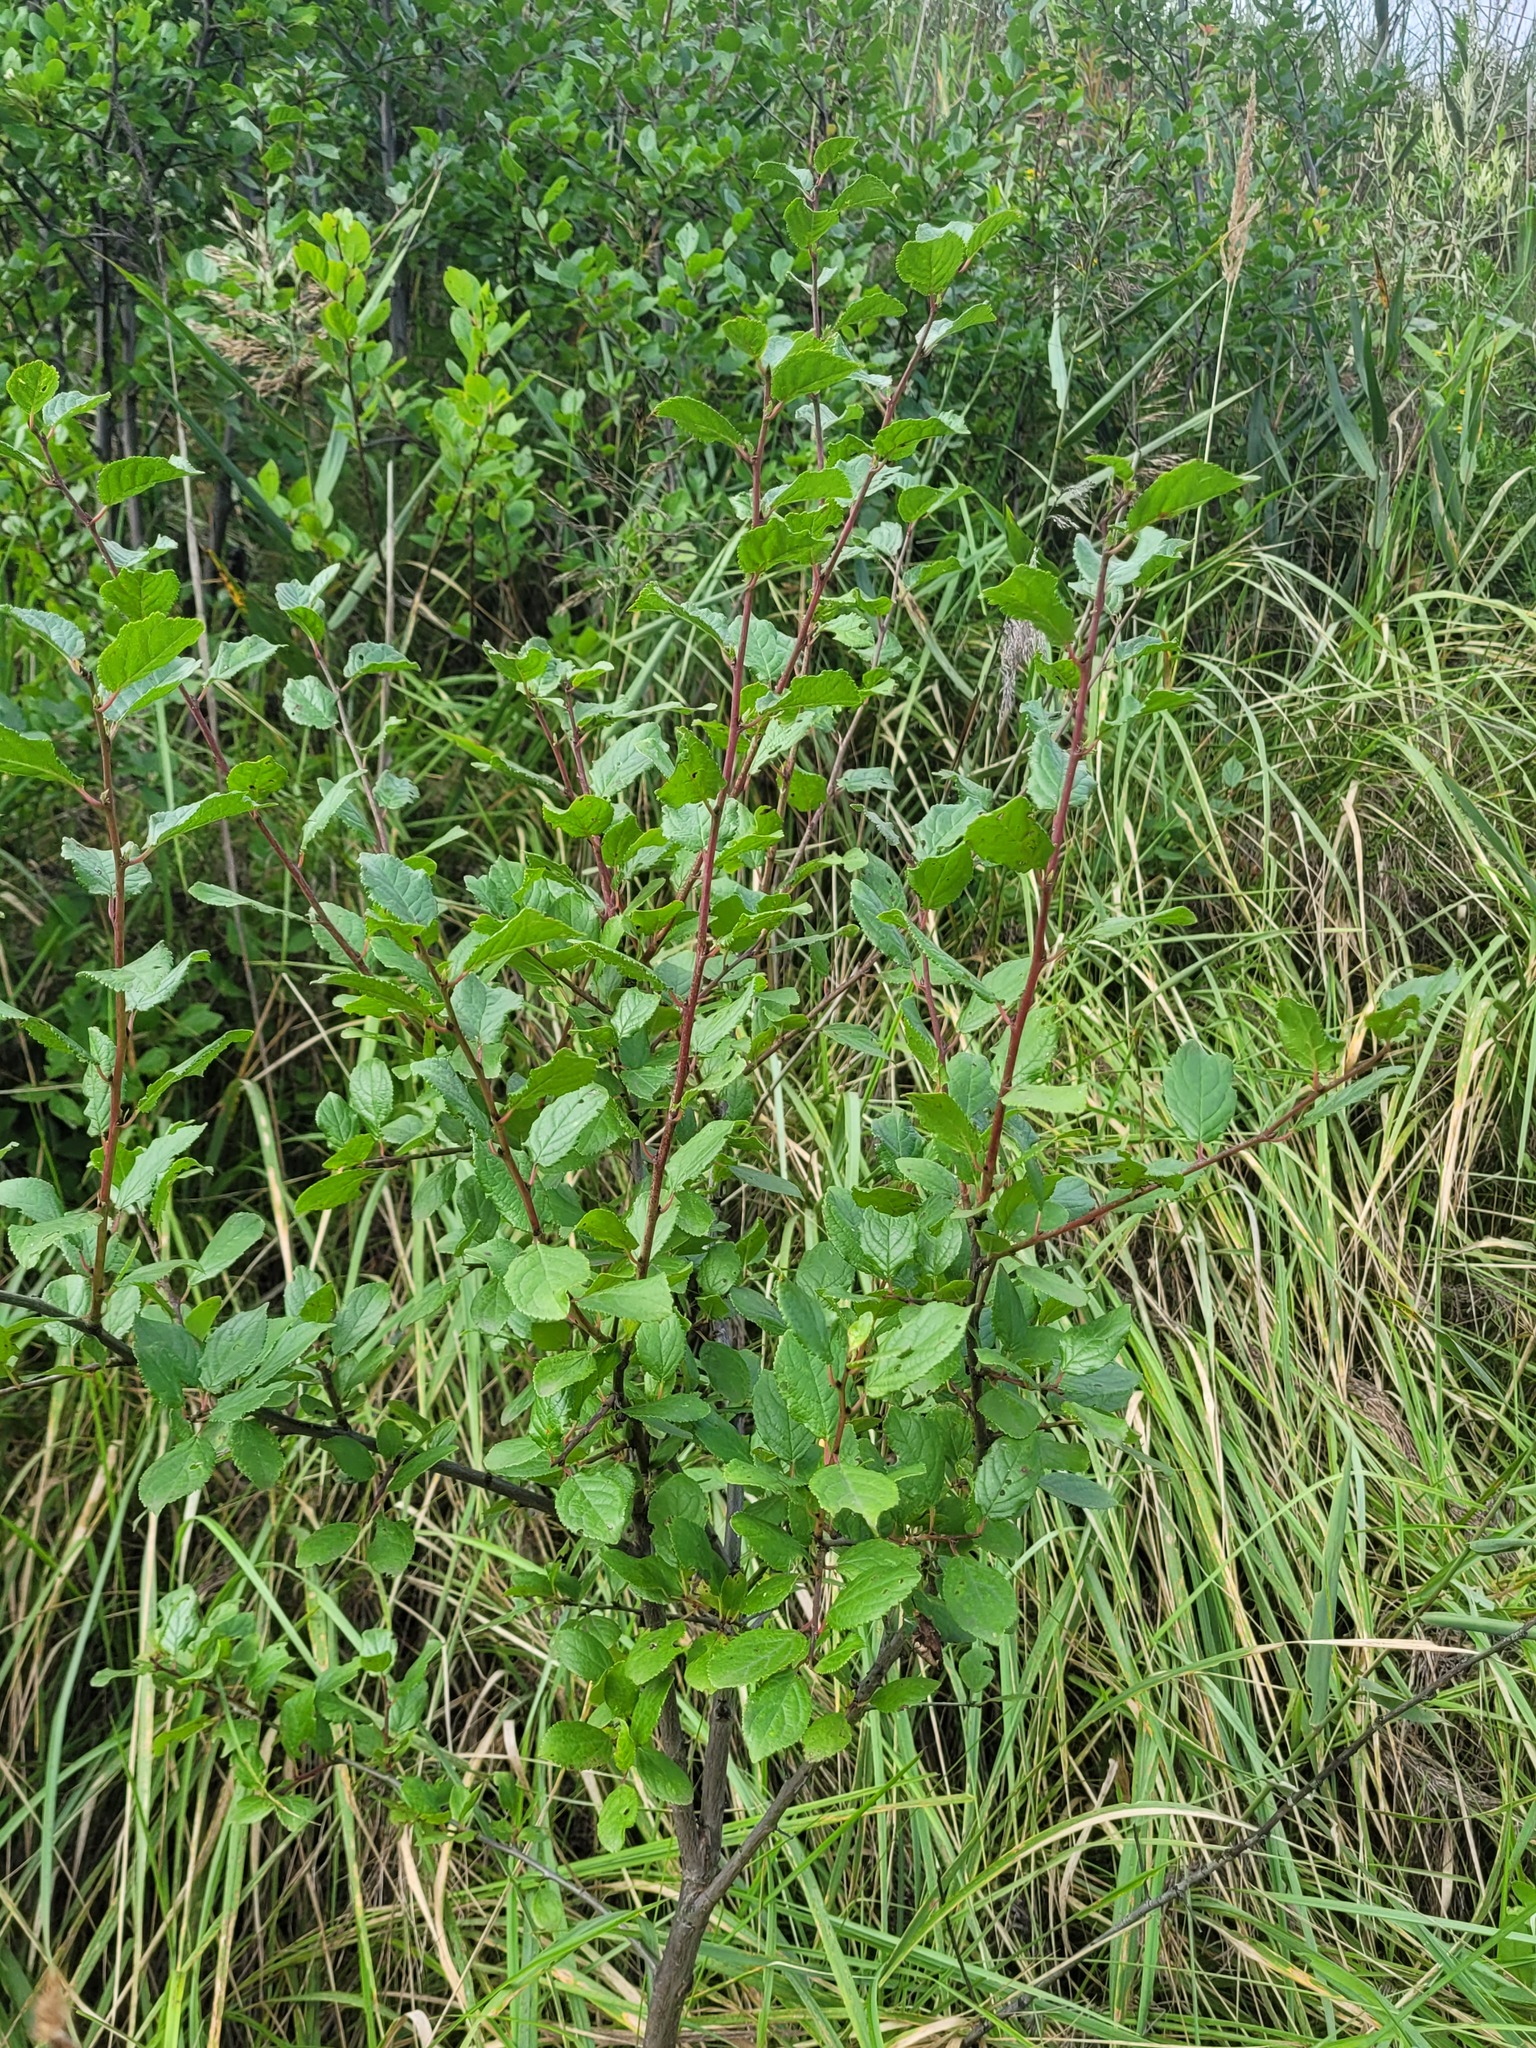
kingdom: Plantae
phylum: Tracheophyta
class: Magnoliopsida
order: Rosales
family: Rosaceae
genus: Prunus
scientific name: Prunus domestica
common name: Wild plum
